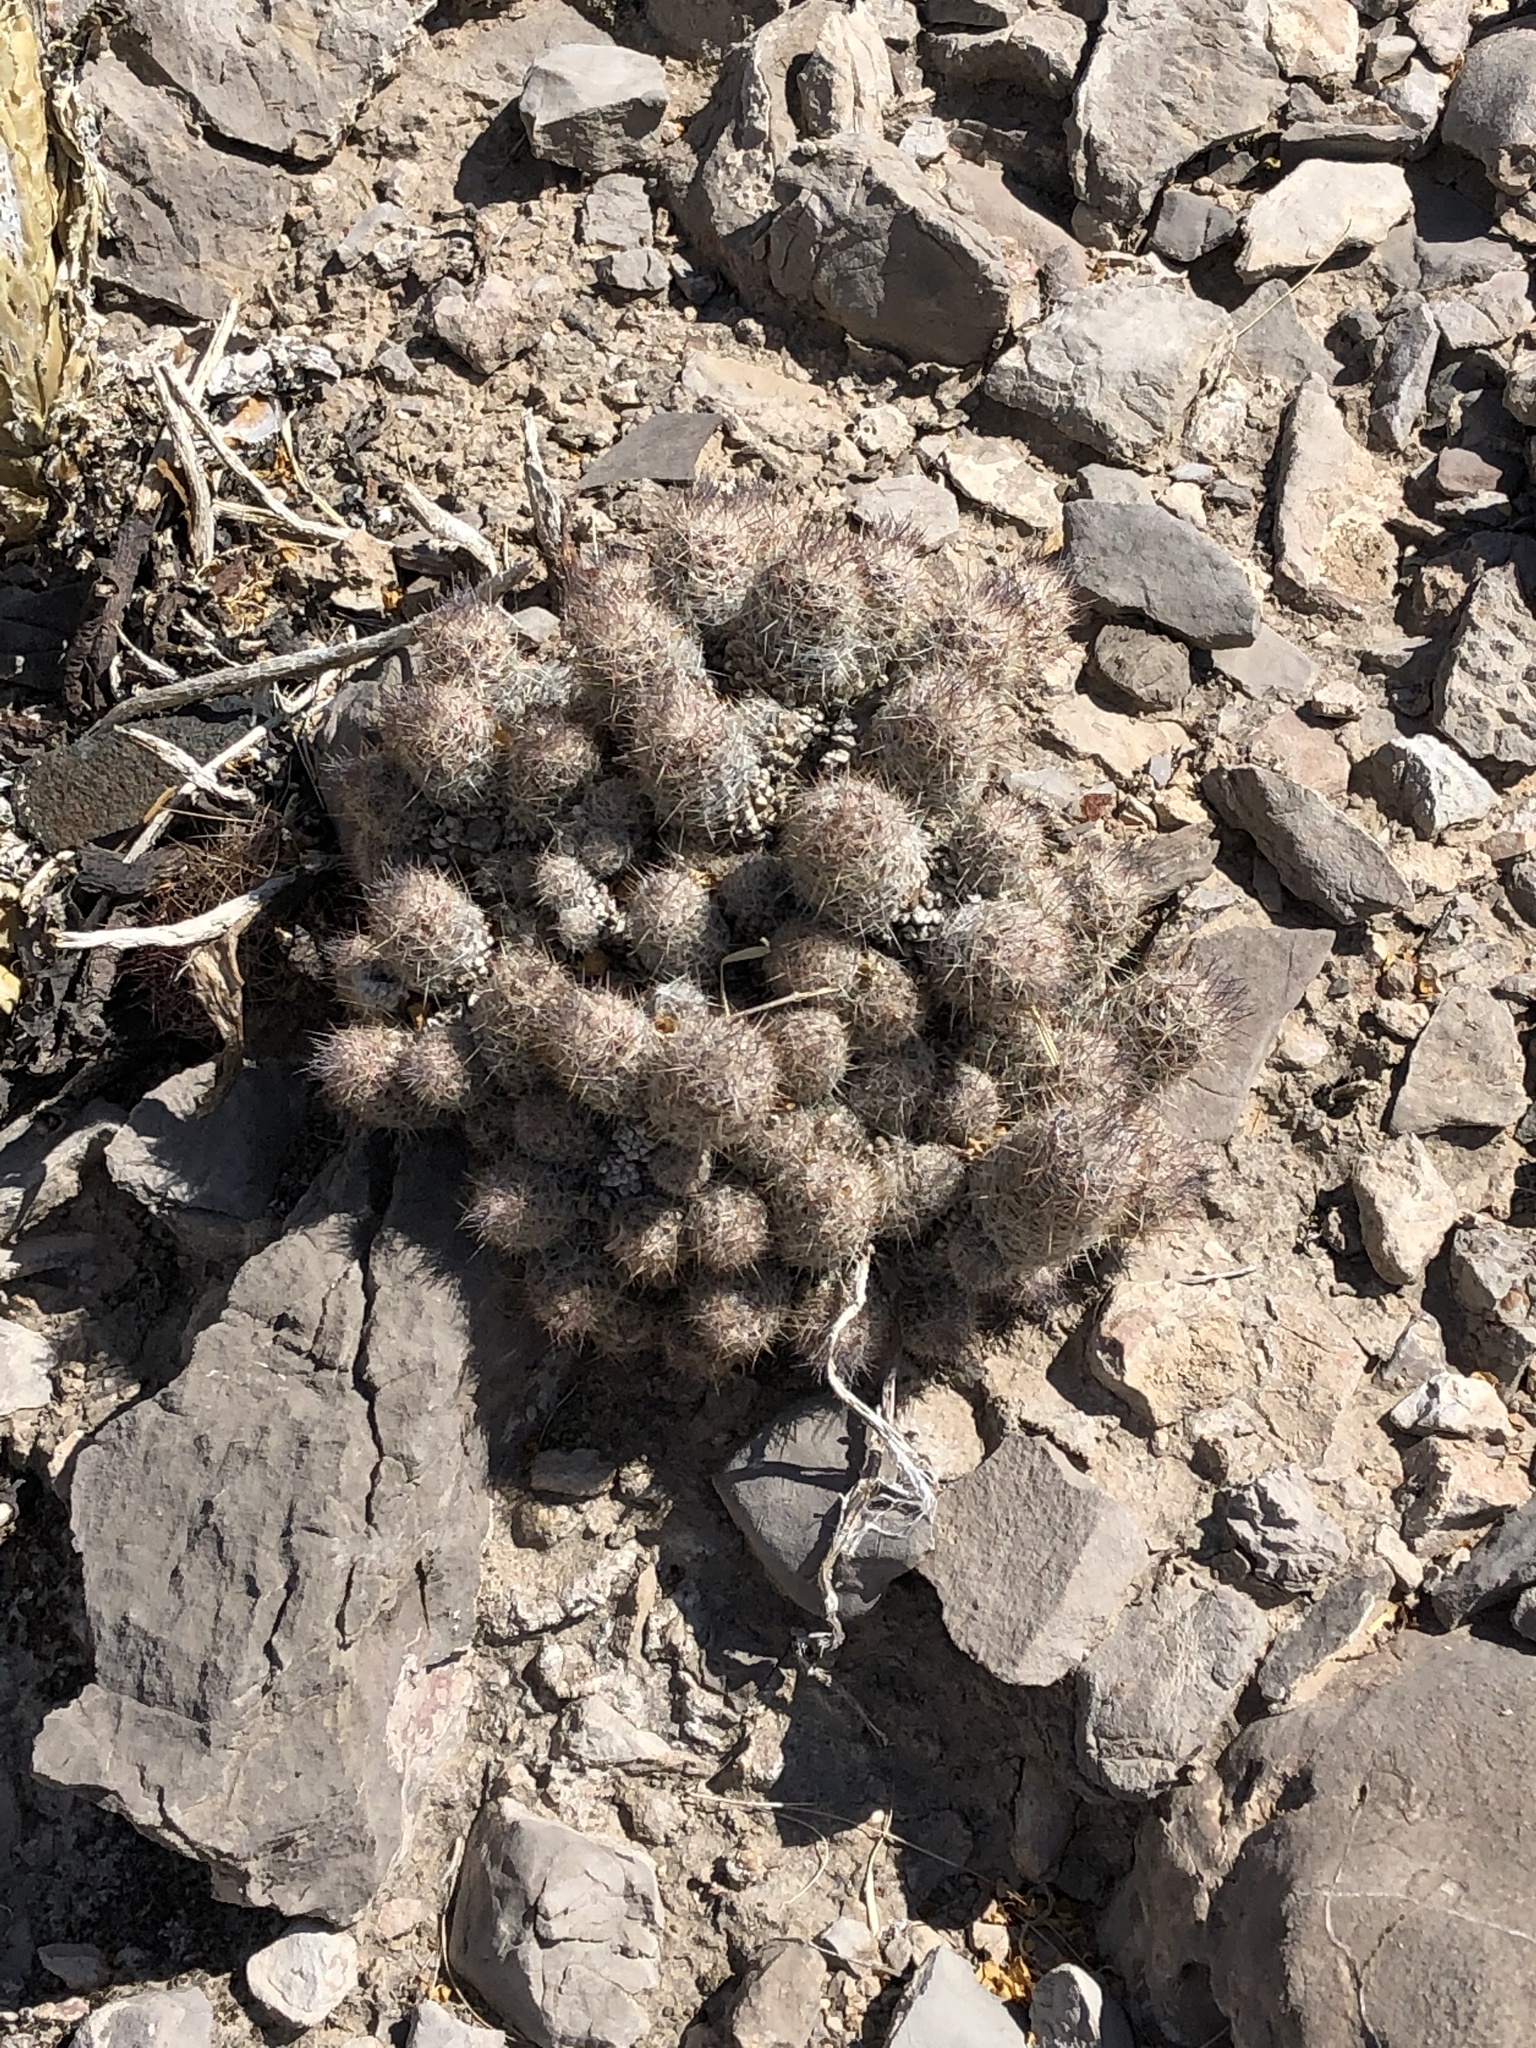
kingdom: Plantae
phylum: Tracheophyta
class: Magnoliopsida
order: Caryophyllales
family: Cactaceae
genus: Pelecyphora
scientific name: Pelecyphora tuberculosa
